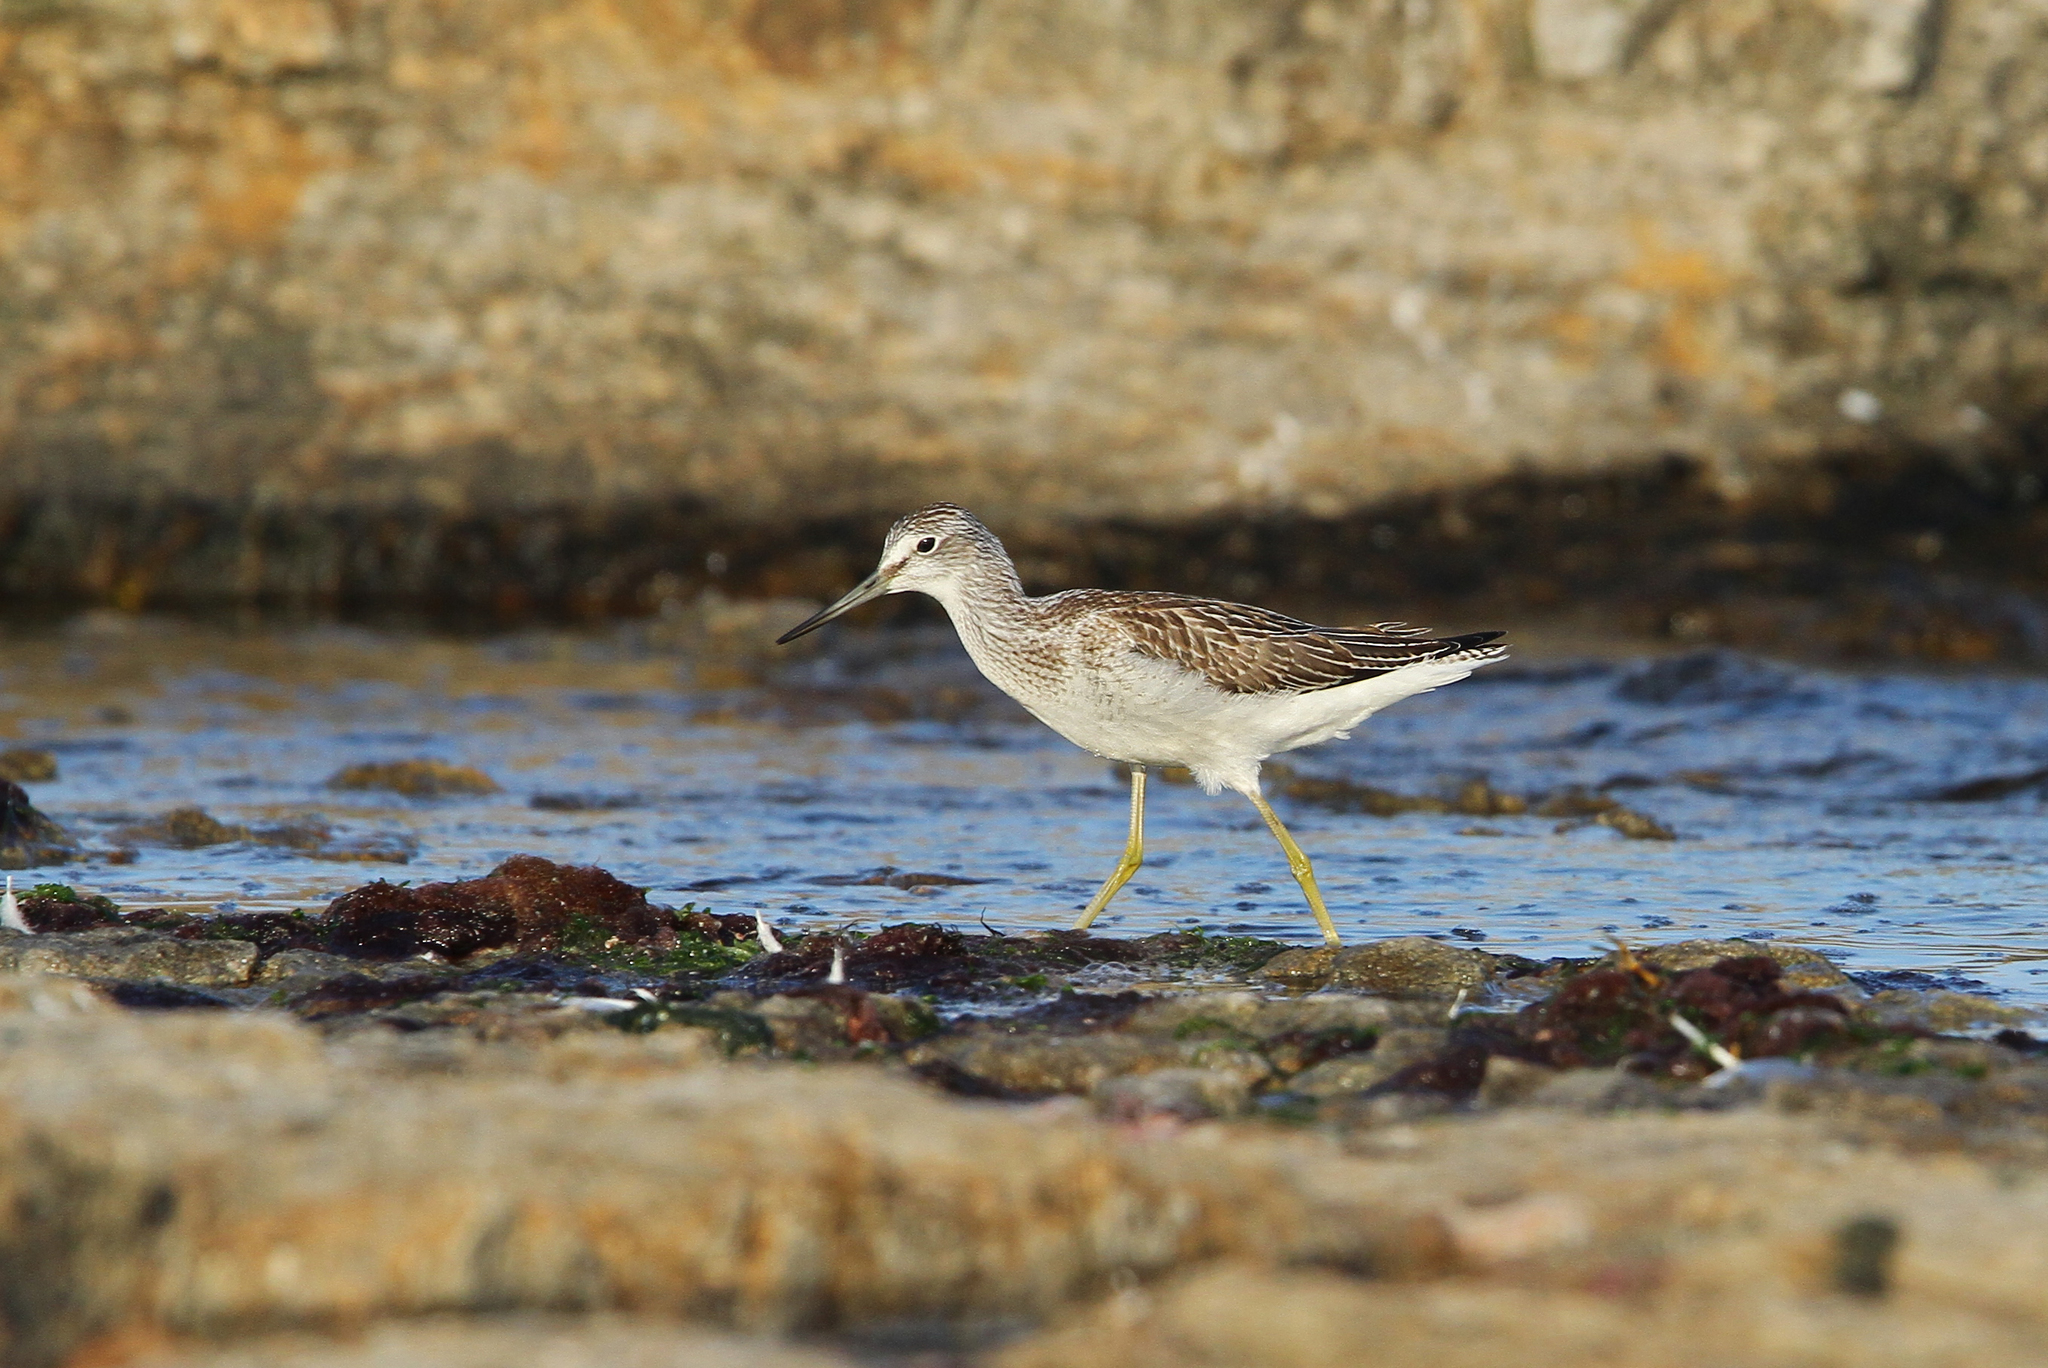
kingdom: Animalia
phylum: Chordata
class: Aves
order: Charadriiformes
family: Scolopacidae
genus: Tringa
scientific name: Tringa nebularia
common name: Common greenshank
